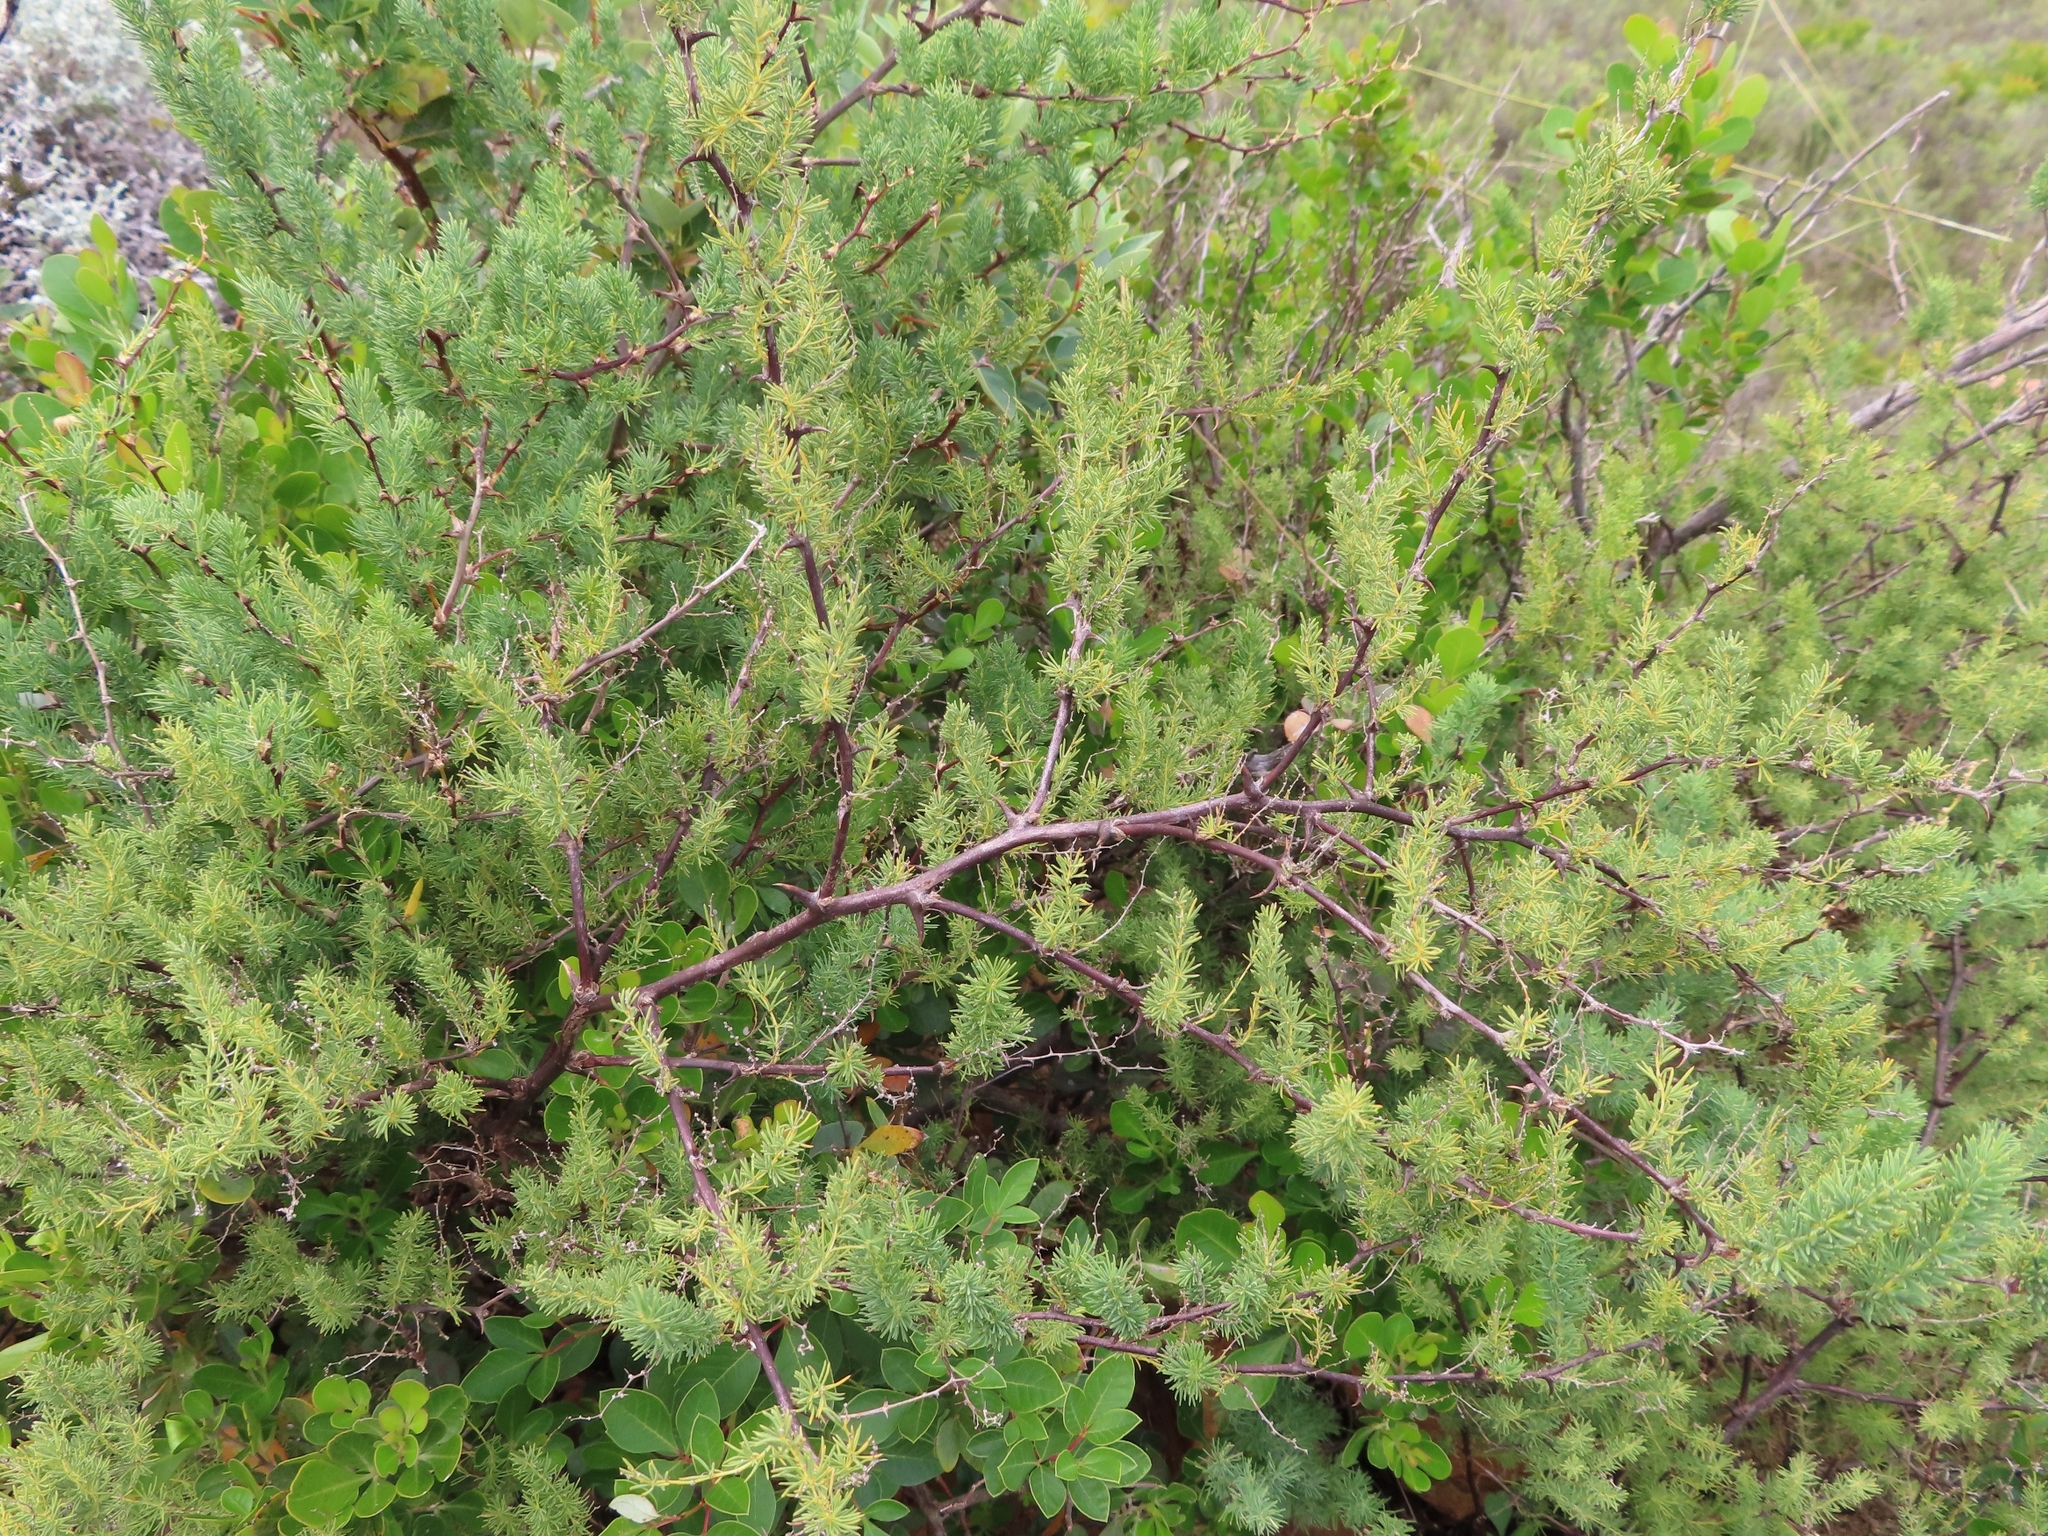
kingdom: Plantae
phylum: Tracheophyta
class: Liliopsida
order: Asparagales
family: Asparagaceae
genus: Asparagus
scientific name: Asparagus rubicundus
